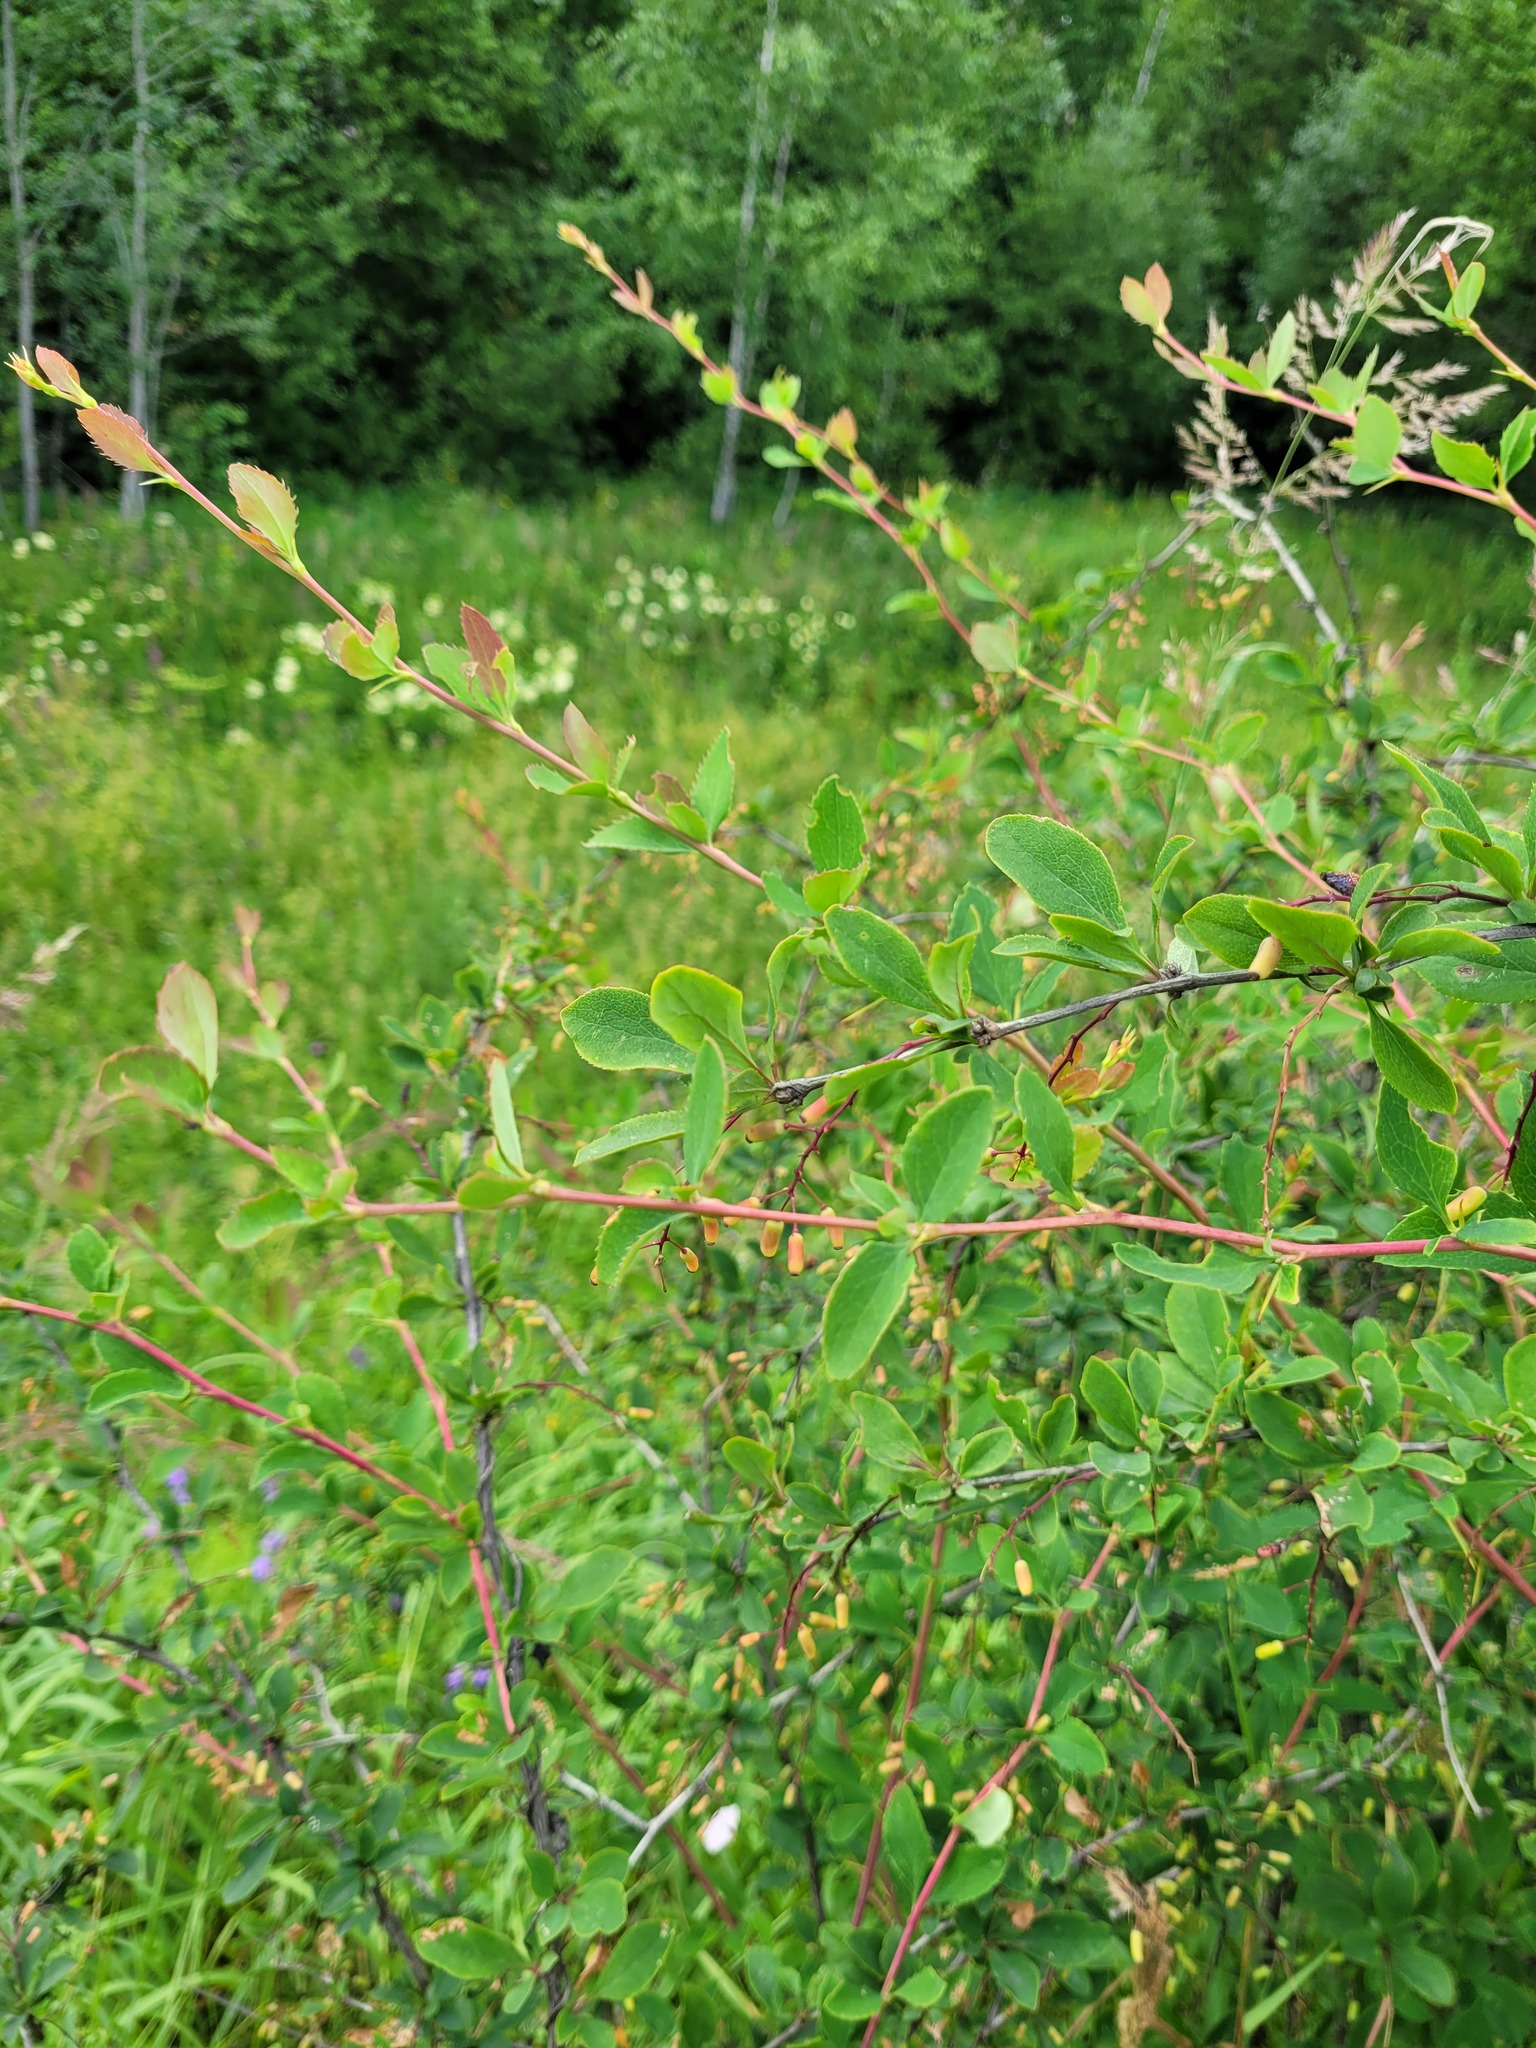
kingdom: Plantae
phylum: Tracheophyta
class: Magnoliopsida
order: Ranunculales
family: Berberidaceae
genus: Berberis
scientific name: Berberis vulgaris
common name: Barberry
